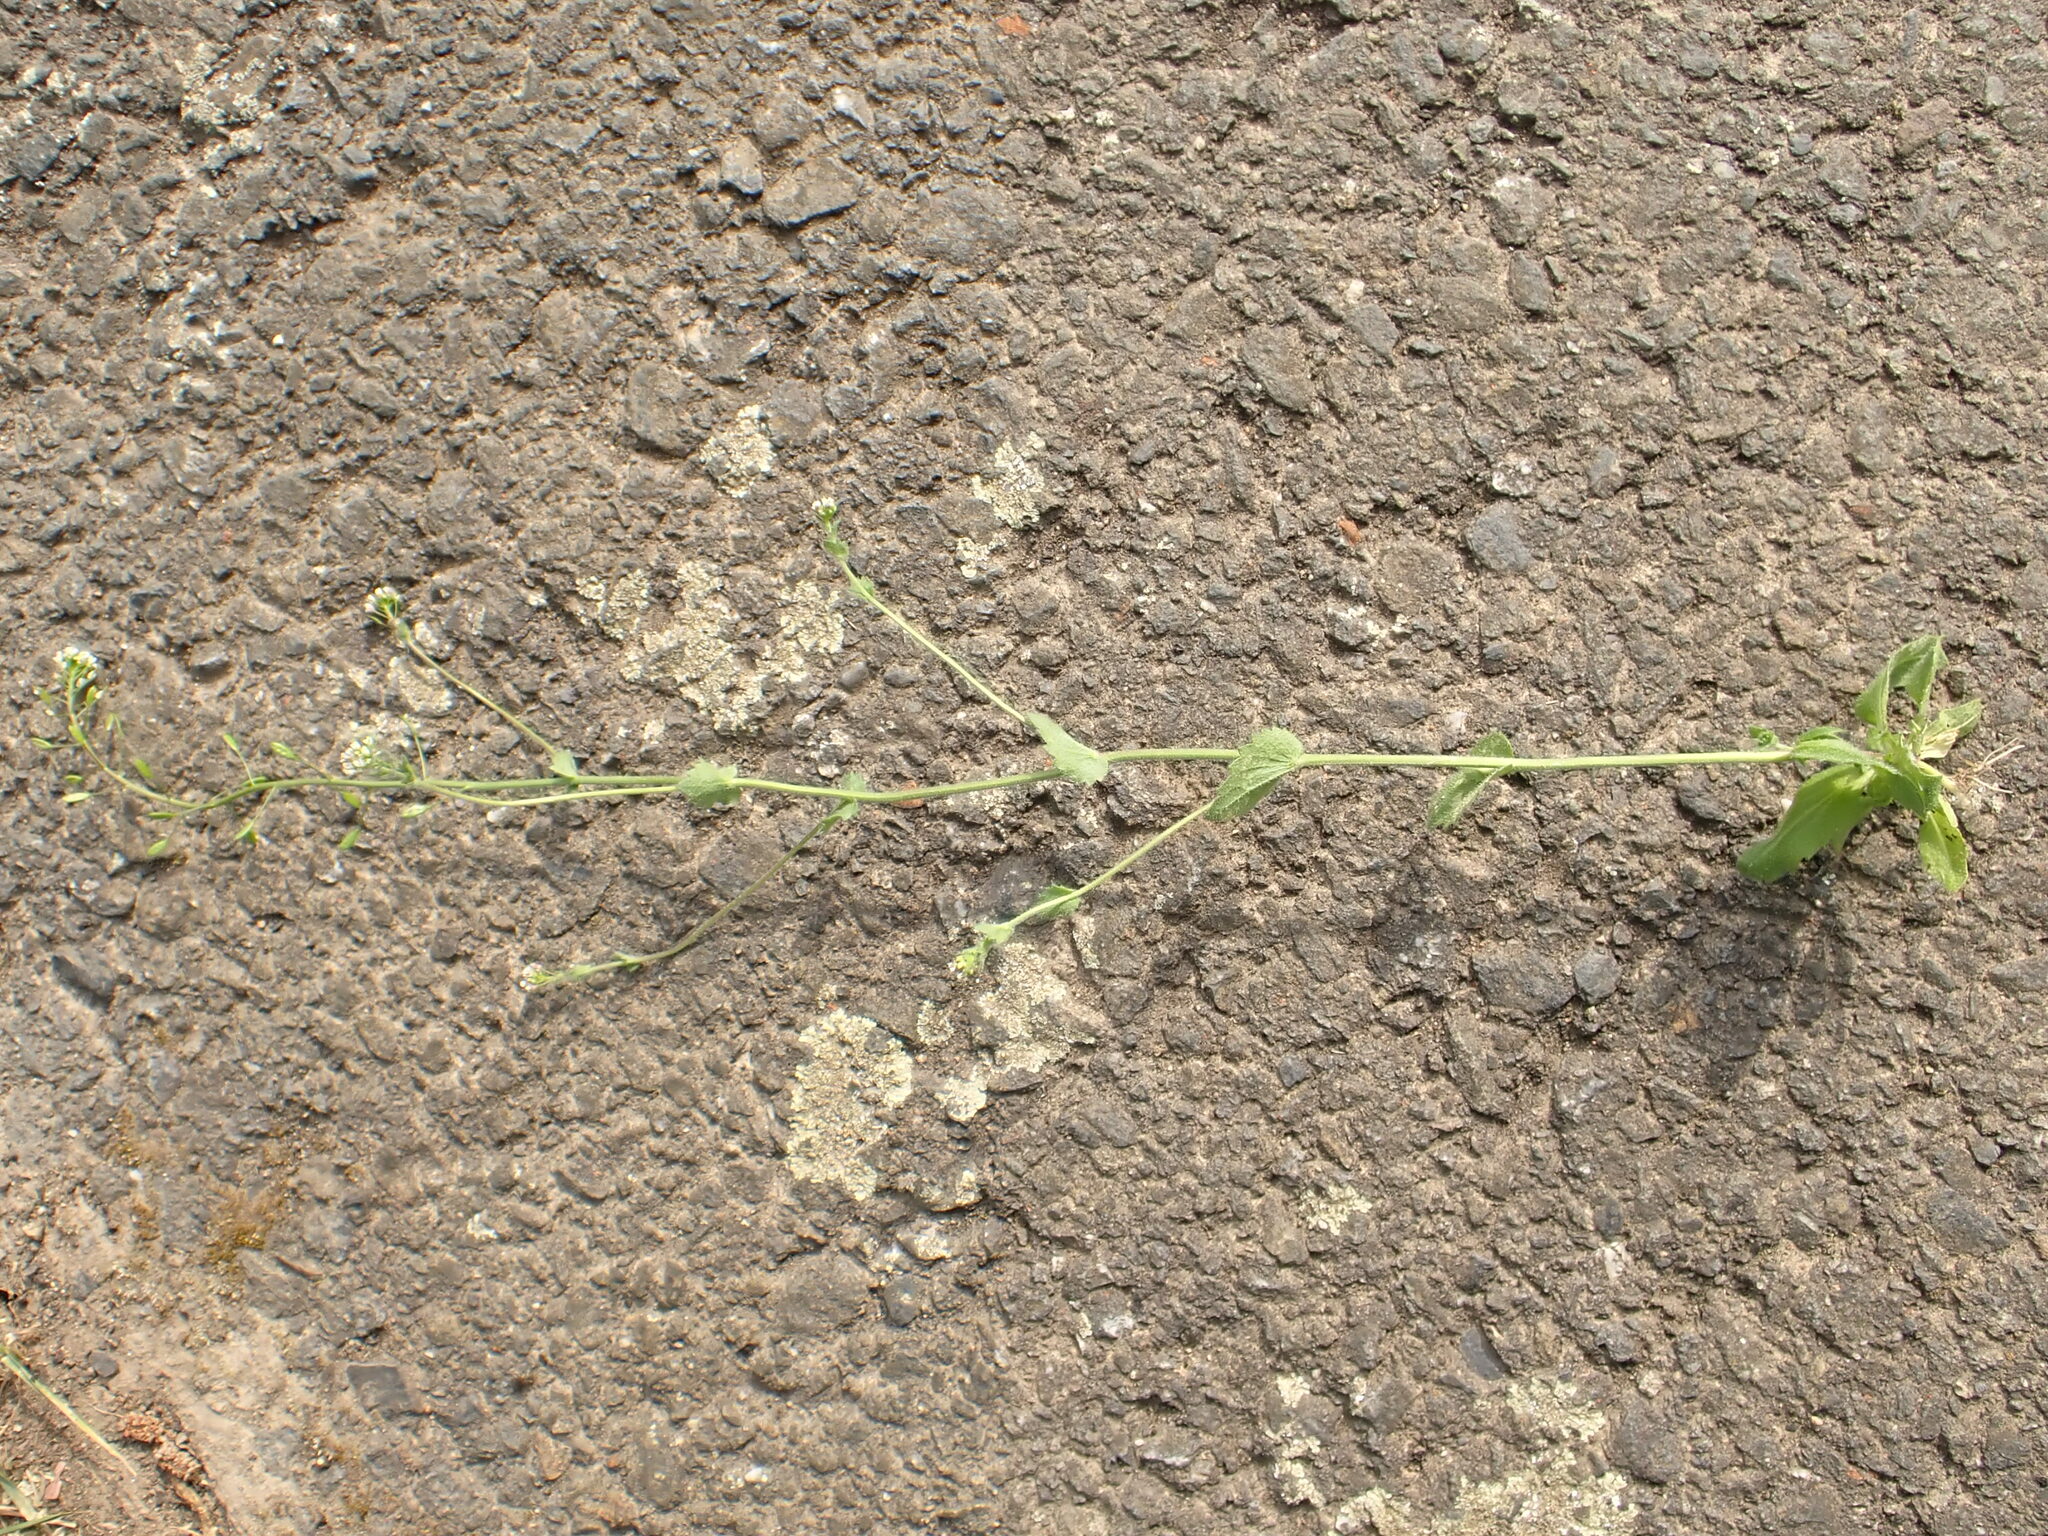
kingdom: Plantae
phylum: Tracheophyta
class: Magnoliopsida
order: Brassicales
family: Brassicaceae
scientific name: Brassicaceae
